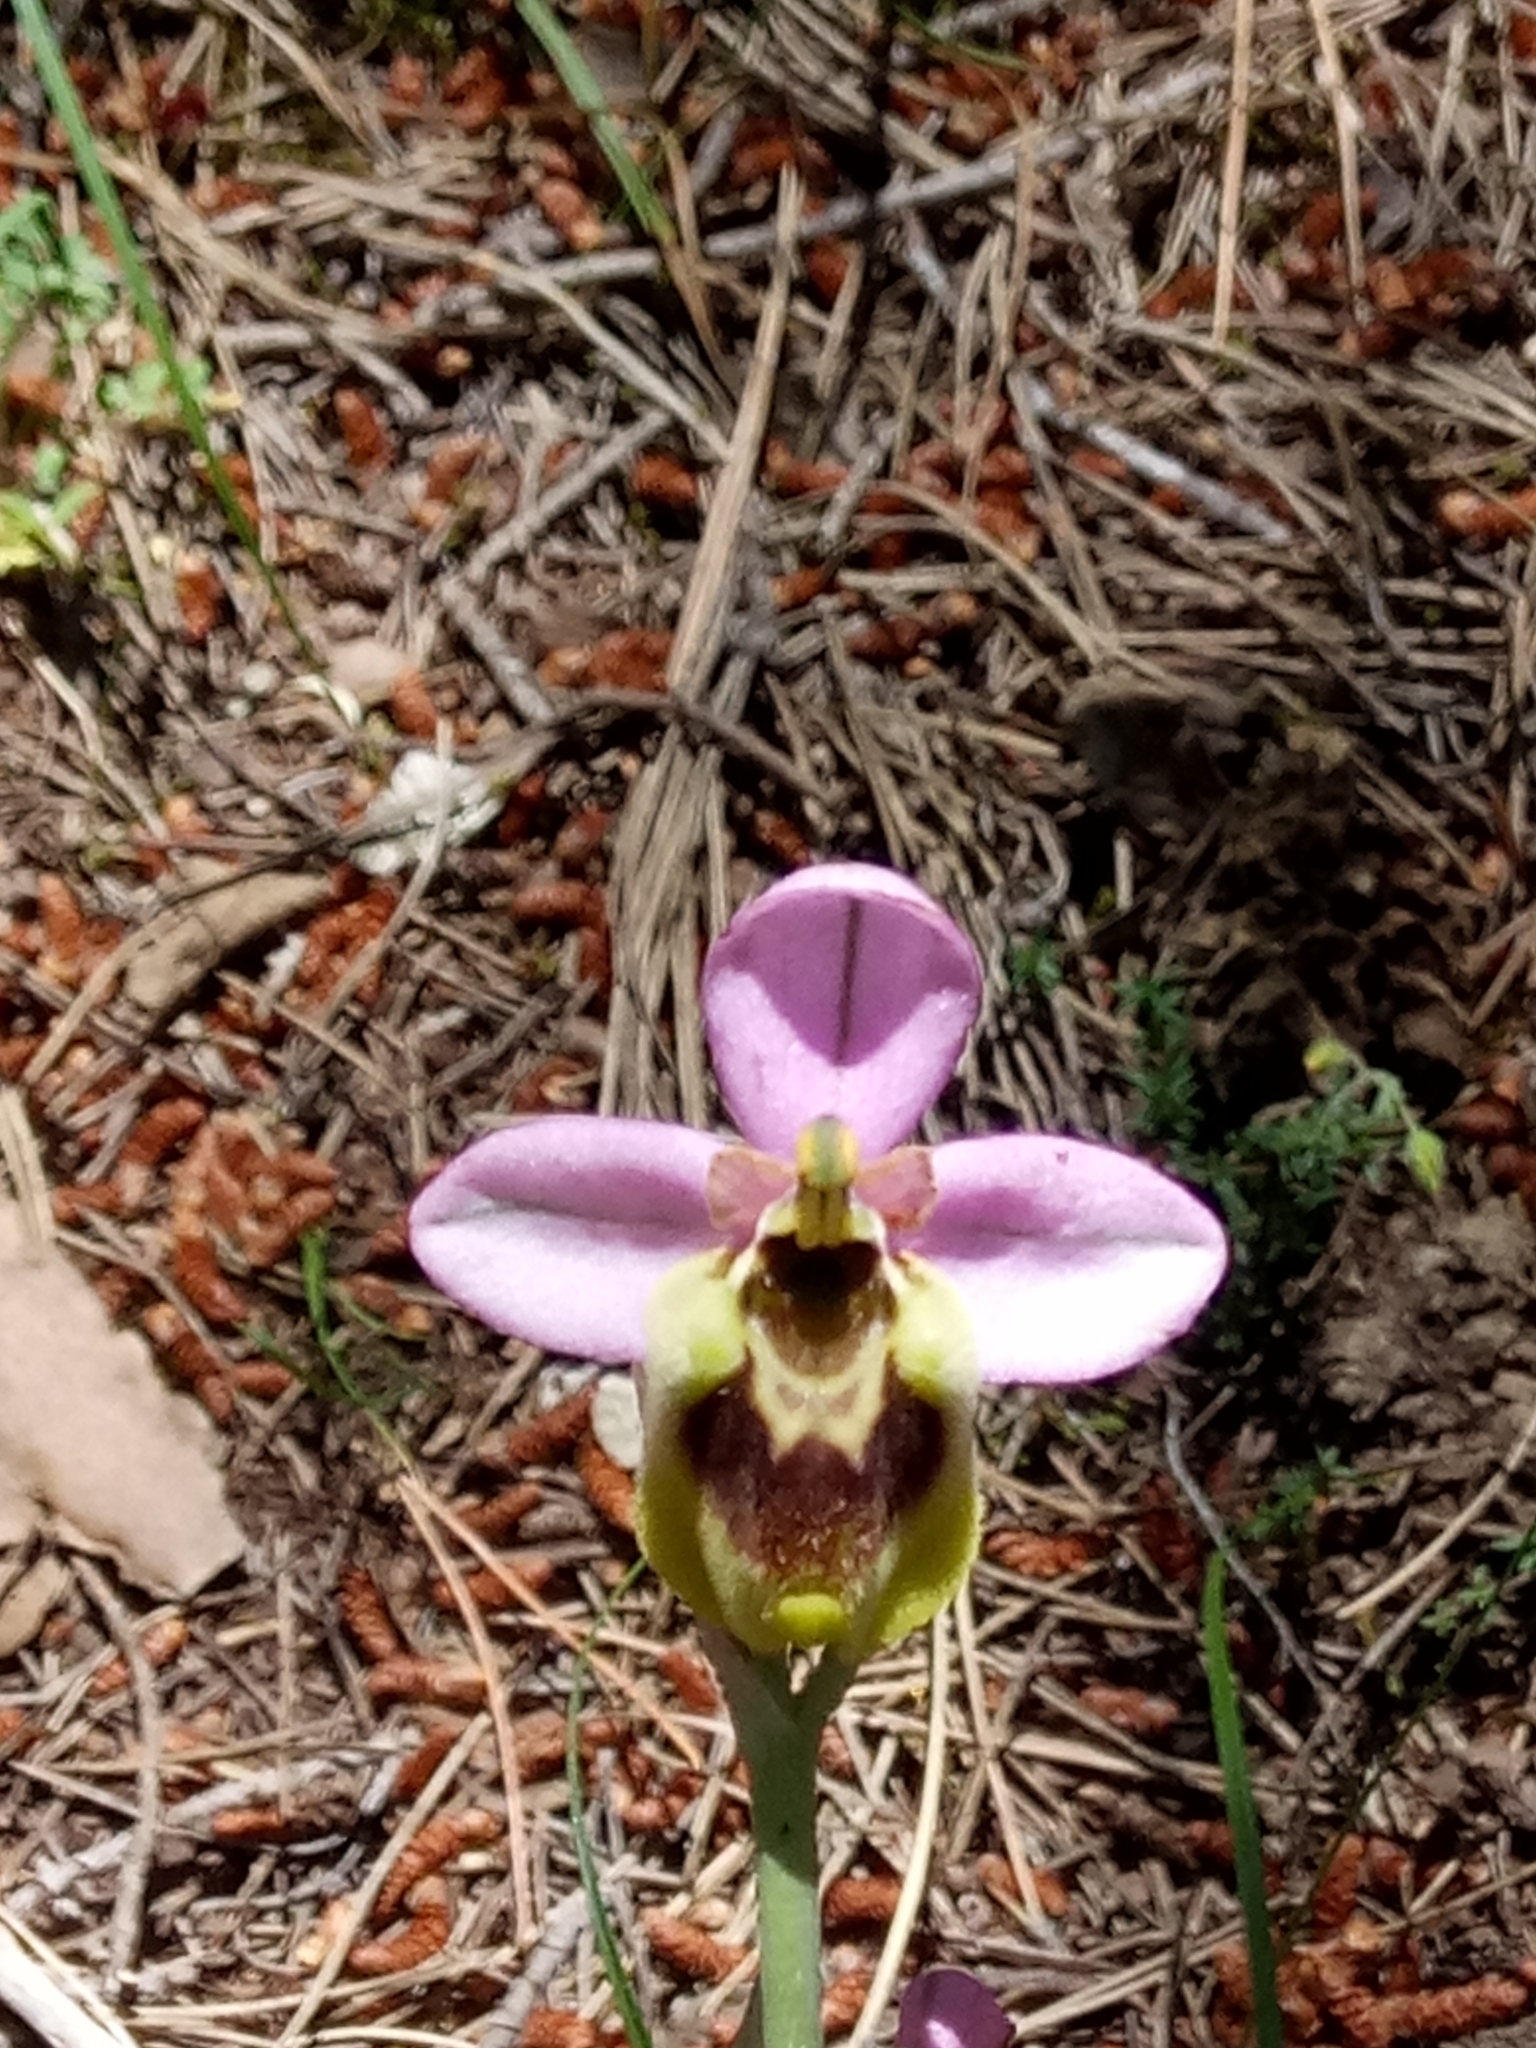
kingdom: Plantae
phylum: Tracheophyta
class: Liliopsida
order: Asparagales
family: Orchidaceae
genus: Ophrys
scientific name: Ophrys tenthredinifera
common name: Sawfly orchid
